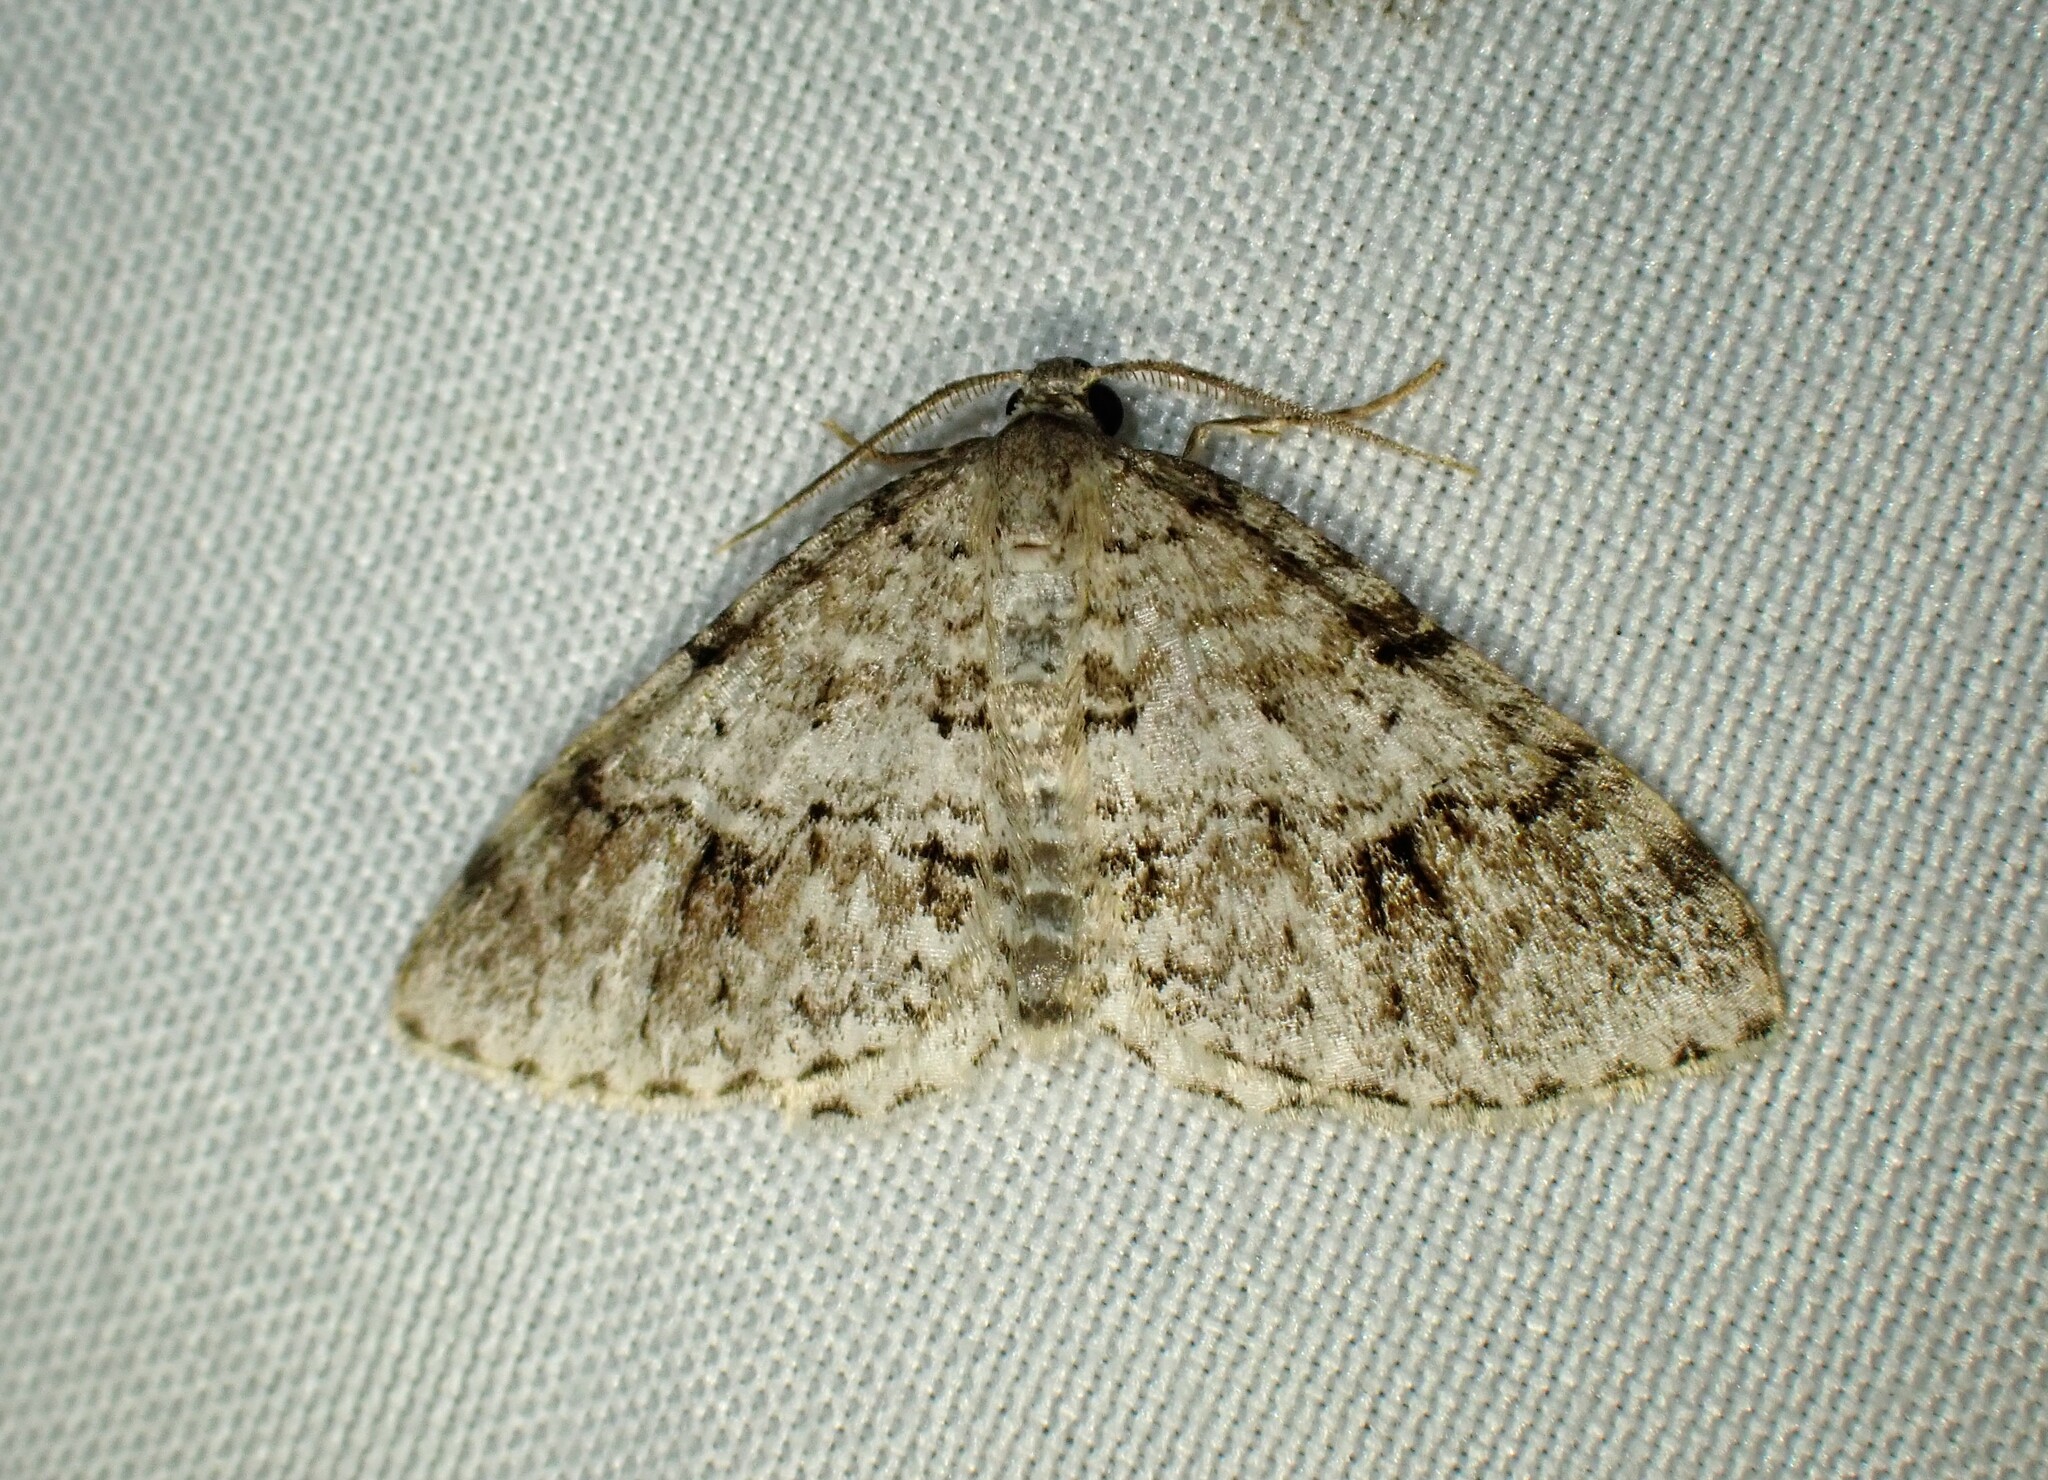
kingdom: Animalia
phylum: Arthropoda
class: Insecta
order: Lepidoptera
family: Geometridae
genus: Venusia
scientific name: Venusia cambrica
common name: Welsh wave
